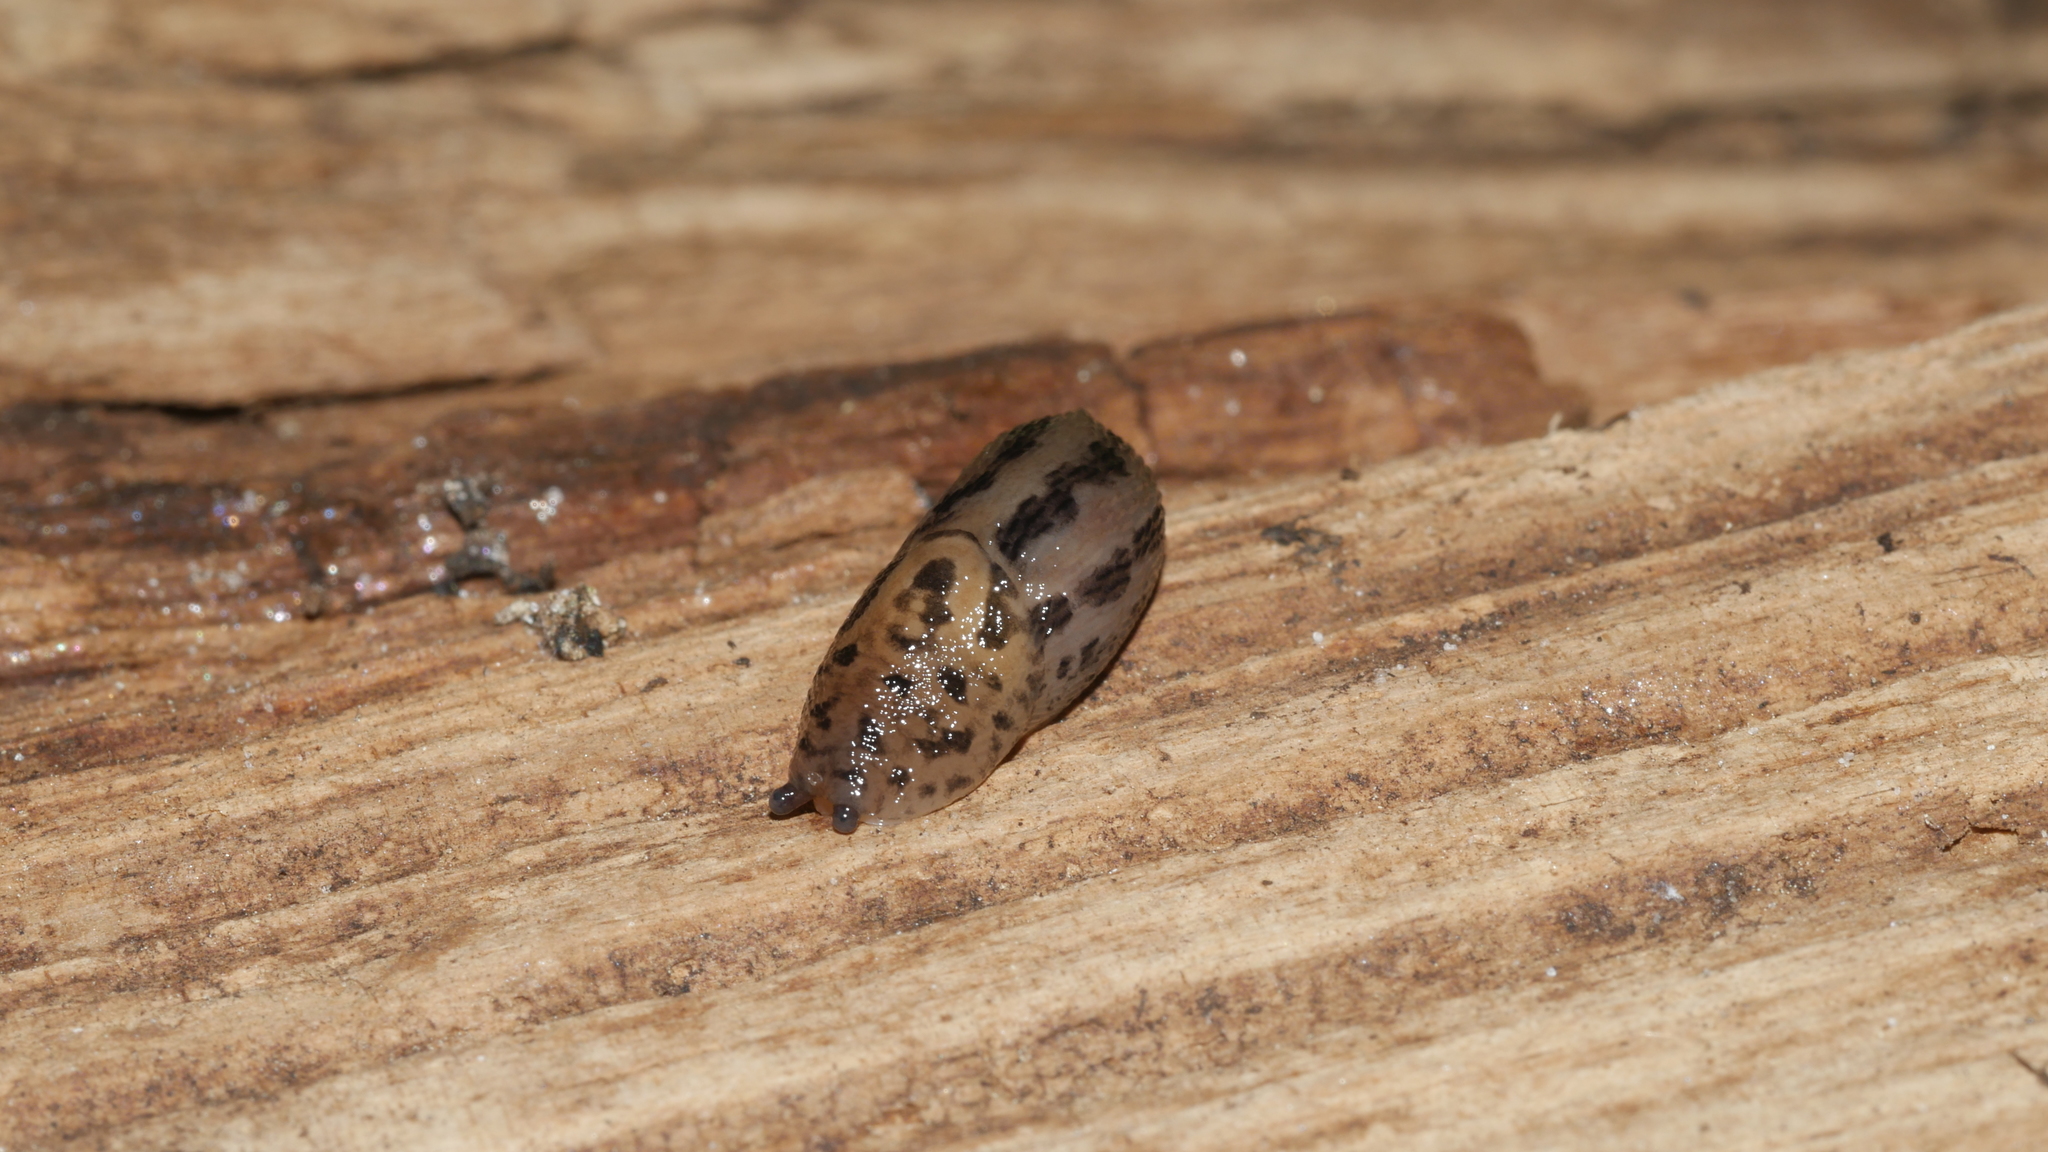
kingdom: Animalia
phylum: Mollusca
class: Gastropoda
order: Stylommatophora
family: Limacidae
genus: Limax
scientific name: Limax maximus
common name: Great grey slug
